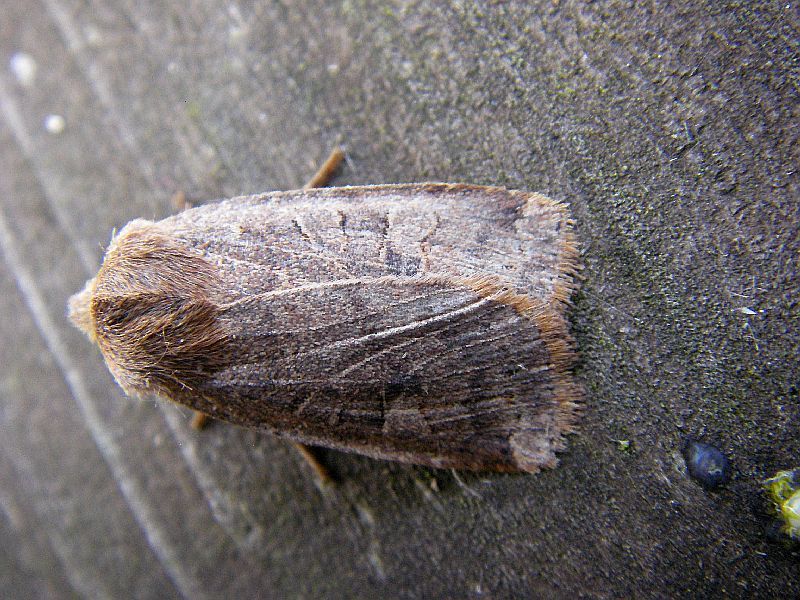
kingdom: Animalia
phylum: Arthropoda
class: Insecta
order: Lepidoptera
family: Noctuidae
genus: Conistra
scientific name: Conistra vaccinii
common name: Chestnut
